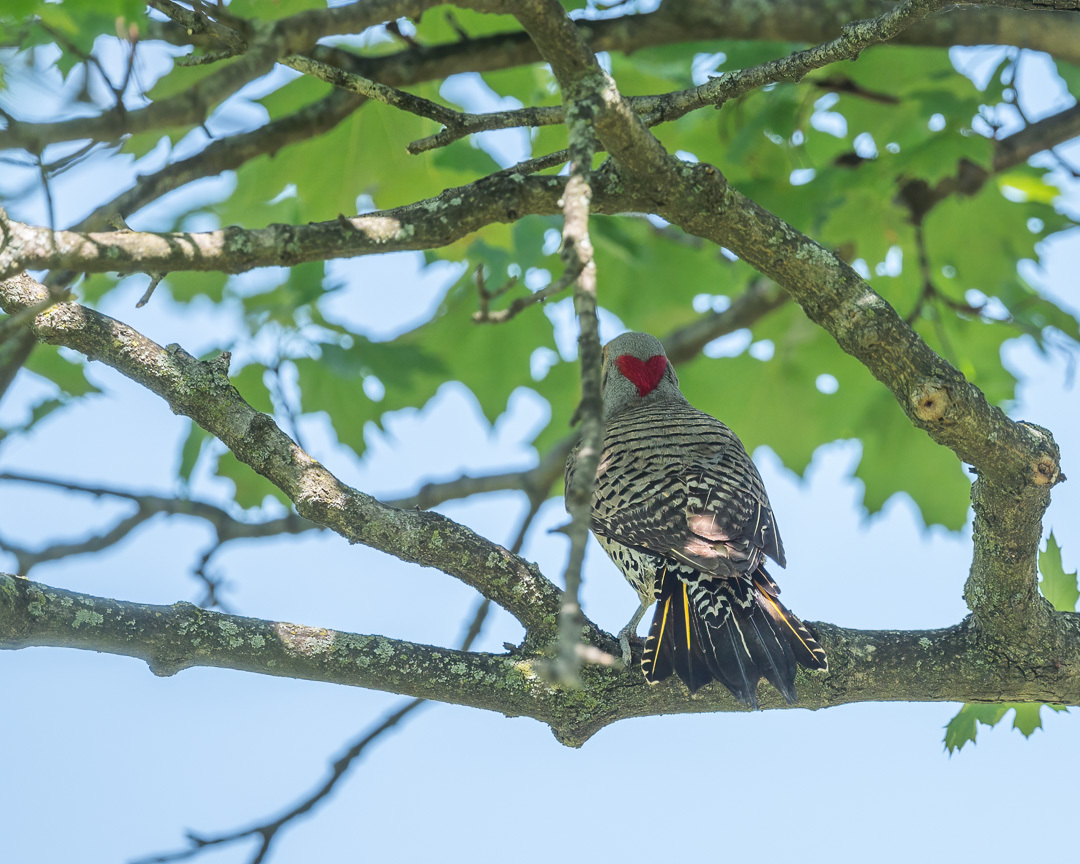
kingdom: Animalia
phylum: Chordata
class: Aves
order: Piciformes
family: Picidae
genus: Colaptes
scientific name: Colaptes auratus
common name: Northern flicker
